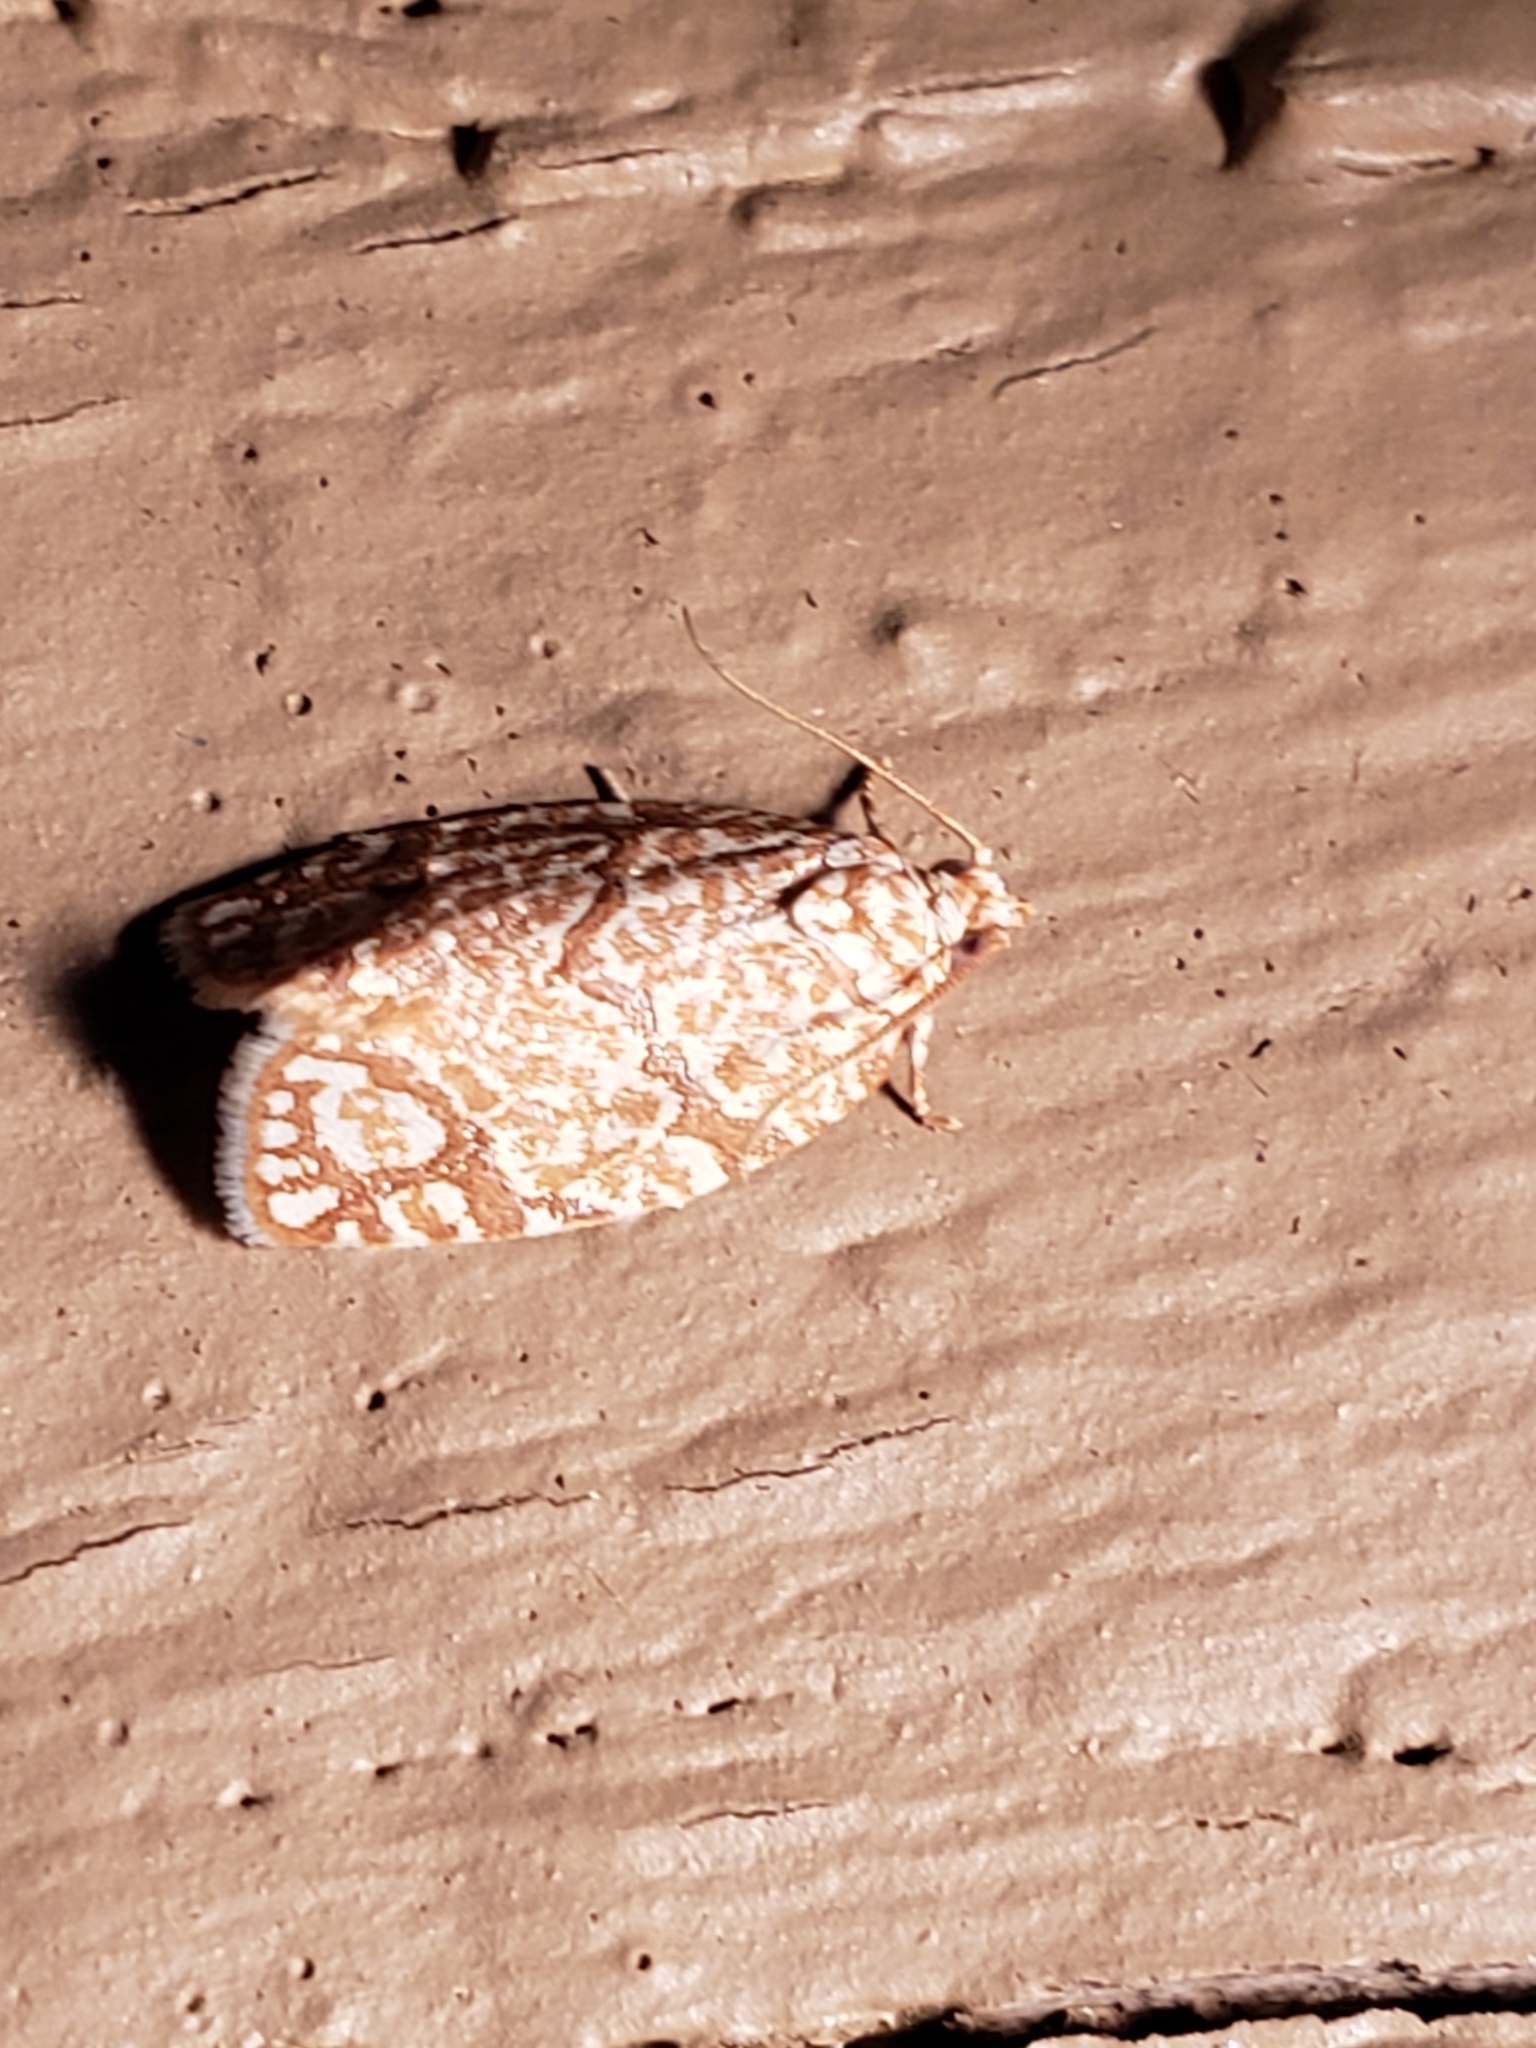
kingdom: Animalia
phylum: Arthropoda
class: Insecta
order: Lepidoptera
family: Tortricidae
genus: Argyrotaenia
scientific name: Argyrotaenia quercifoliana
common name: Yellow-winged oak leafroller moth
